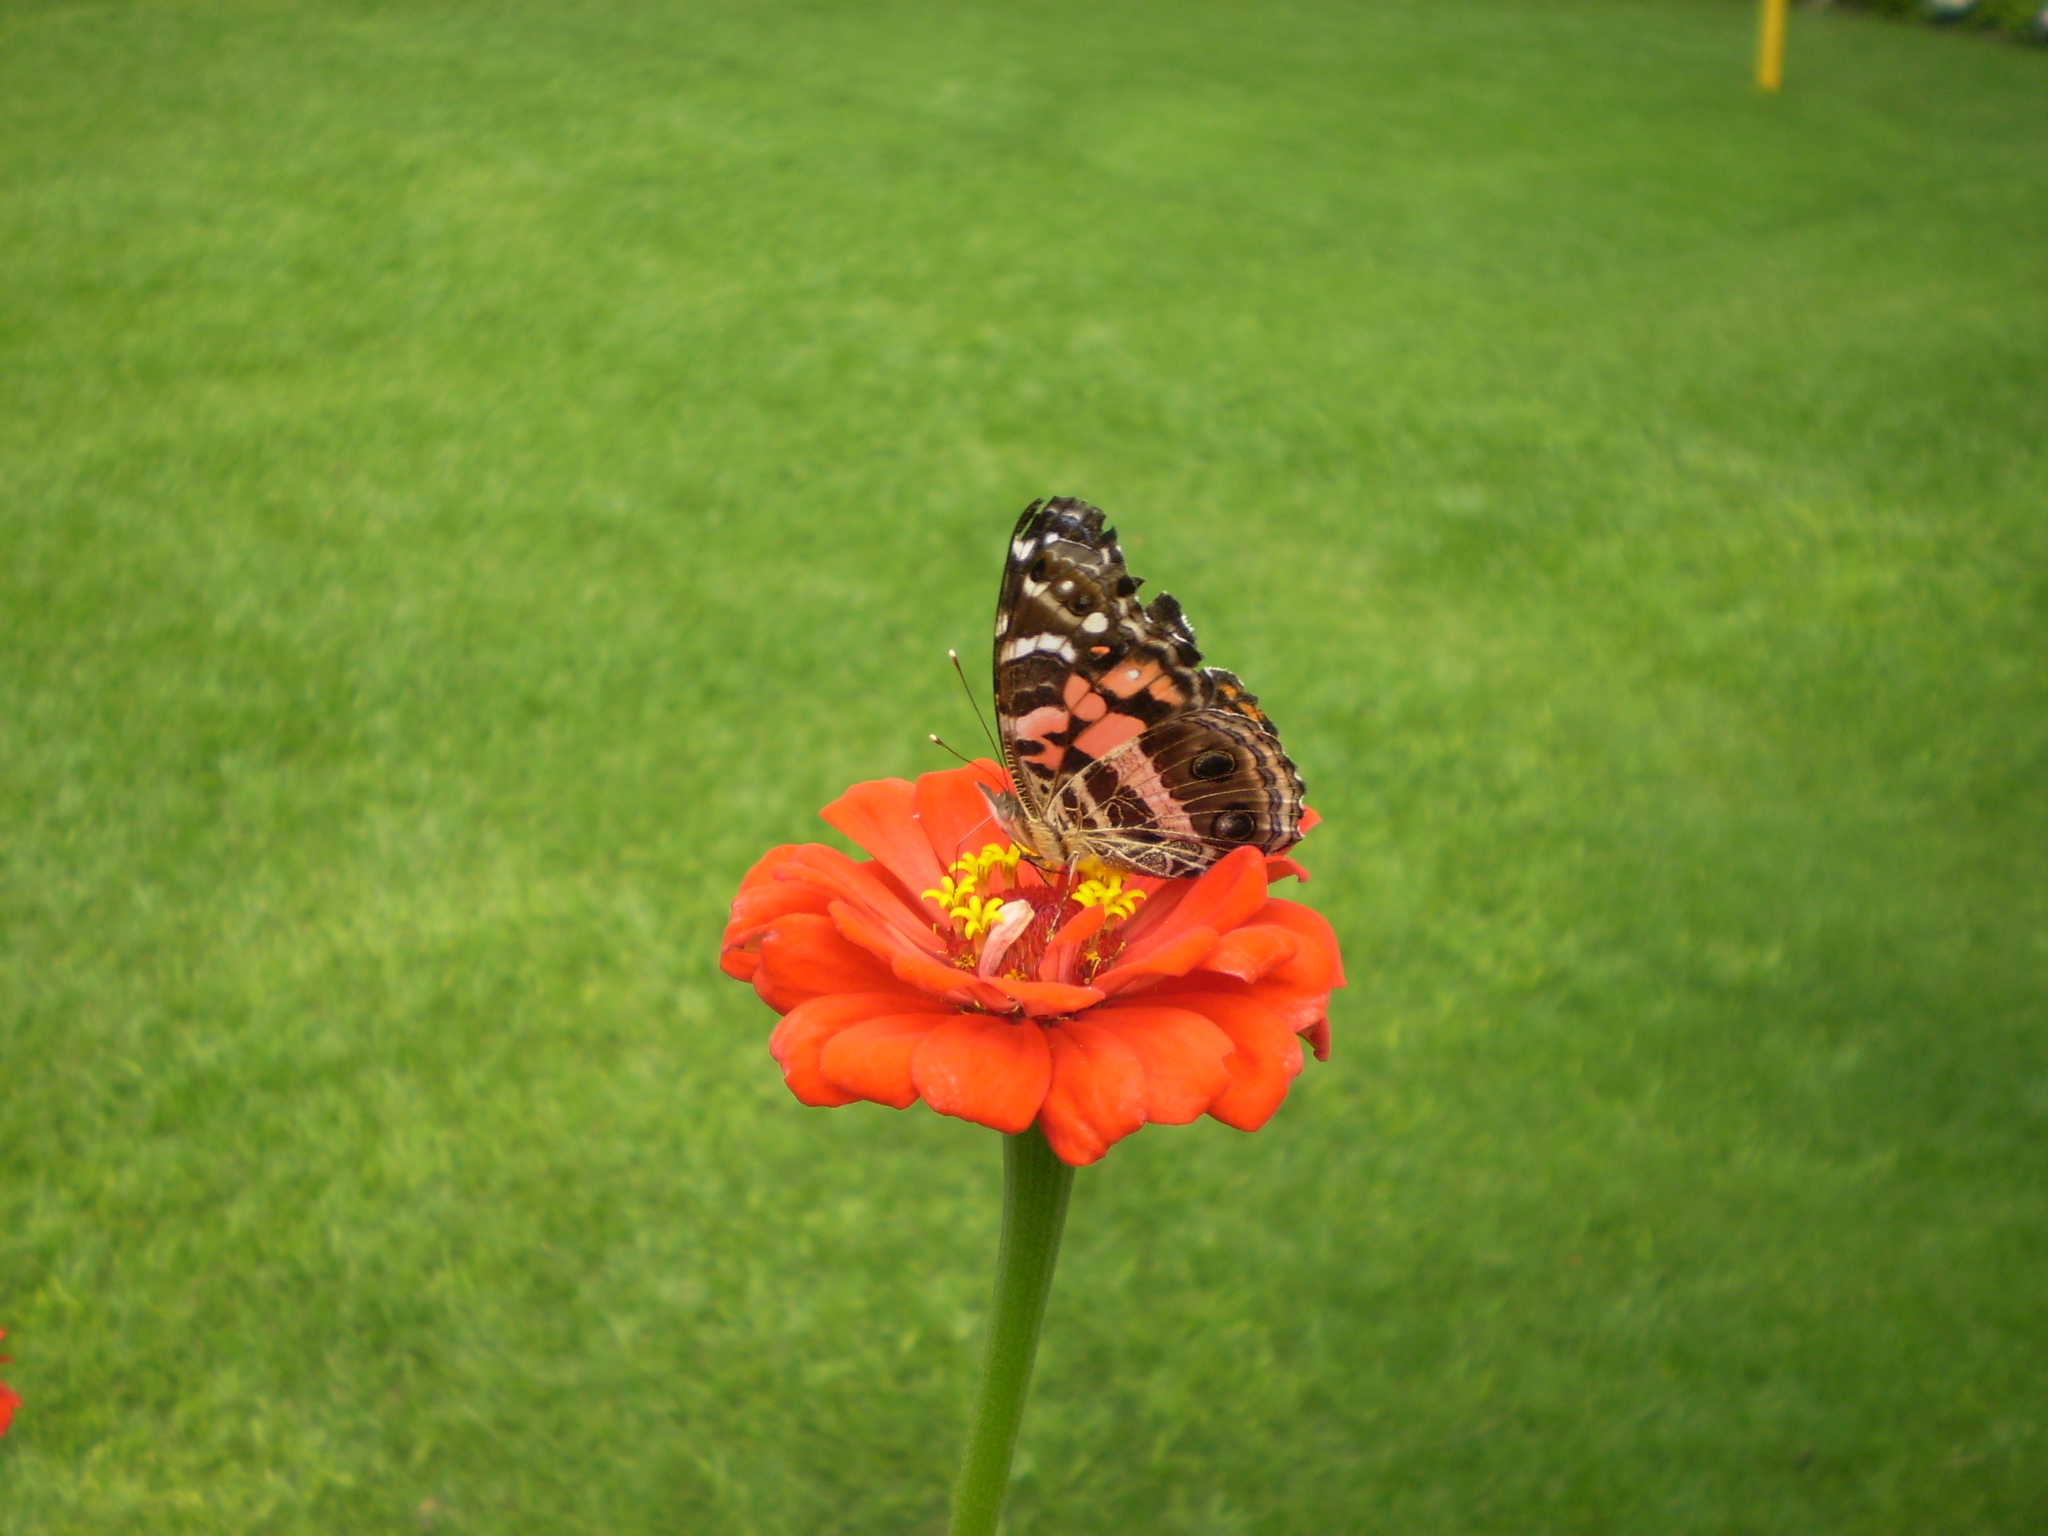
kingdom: Animalia
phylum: Arthropoda
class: Insecta
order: Lepidoptera
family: Nymphalidae
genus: Vanessa
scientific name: Vanessa myrinna
